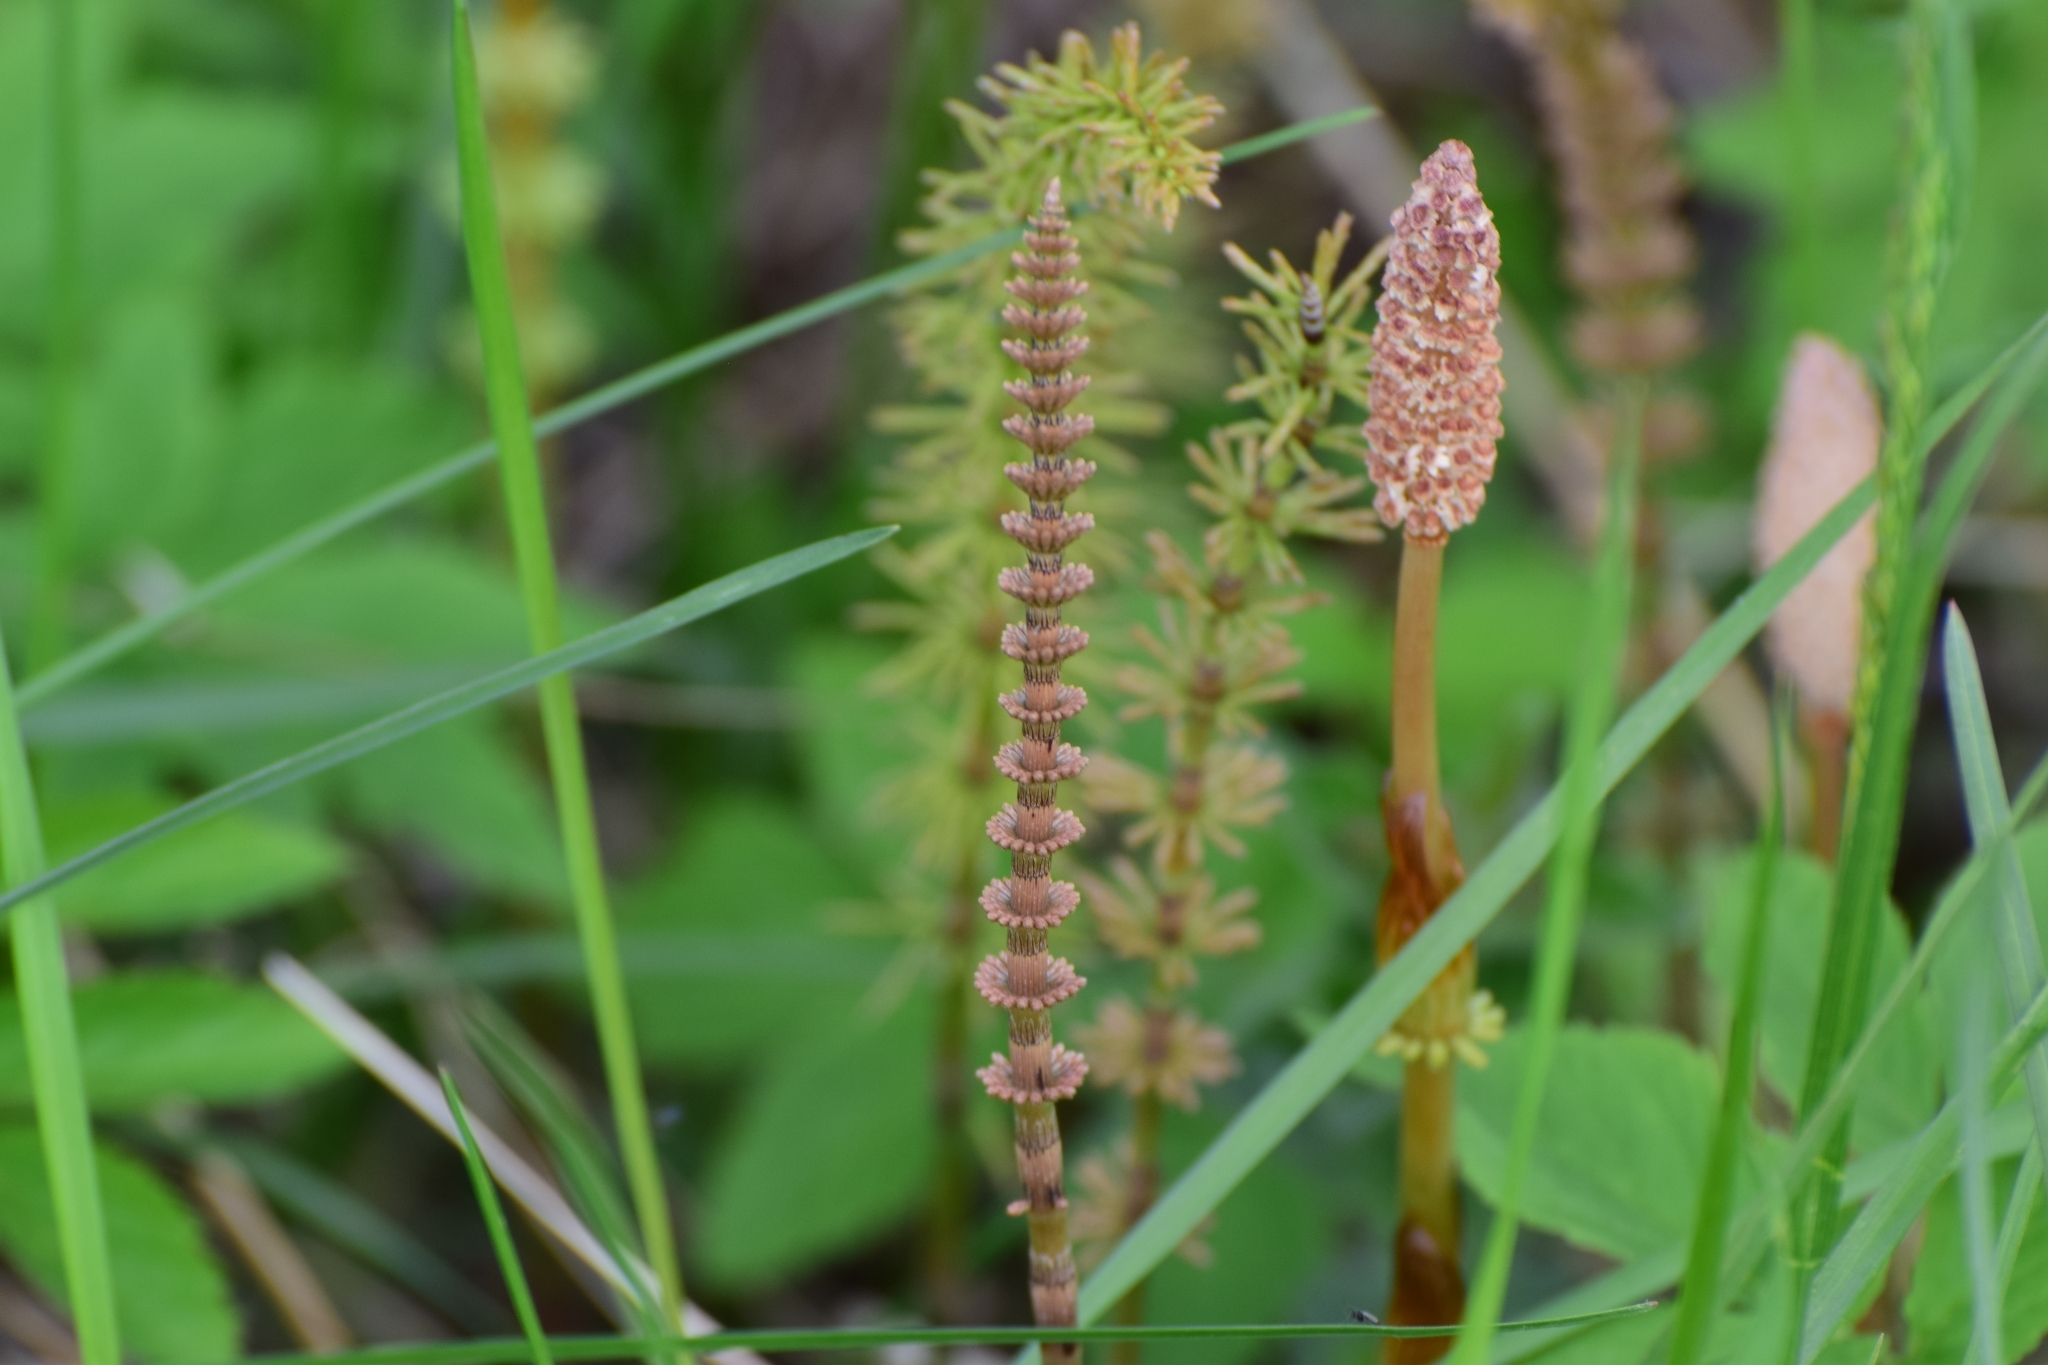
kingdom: Plantae
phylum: Tracheophyta
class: Polypodiopsida
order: Equisetales
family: Equisetaceae
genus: Equisetum
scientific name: Equisetum pratense
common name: Meadow horsetail
